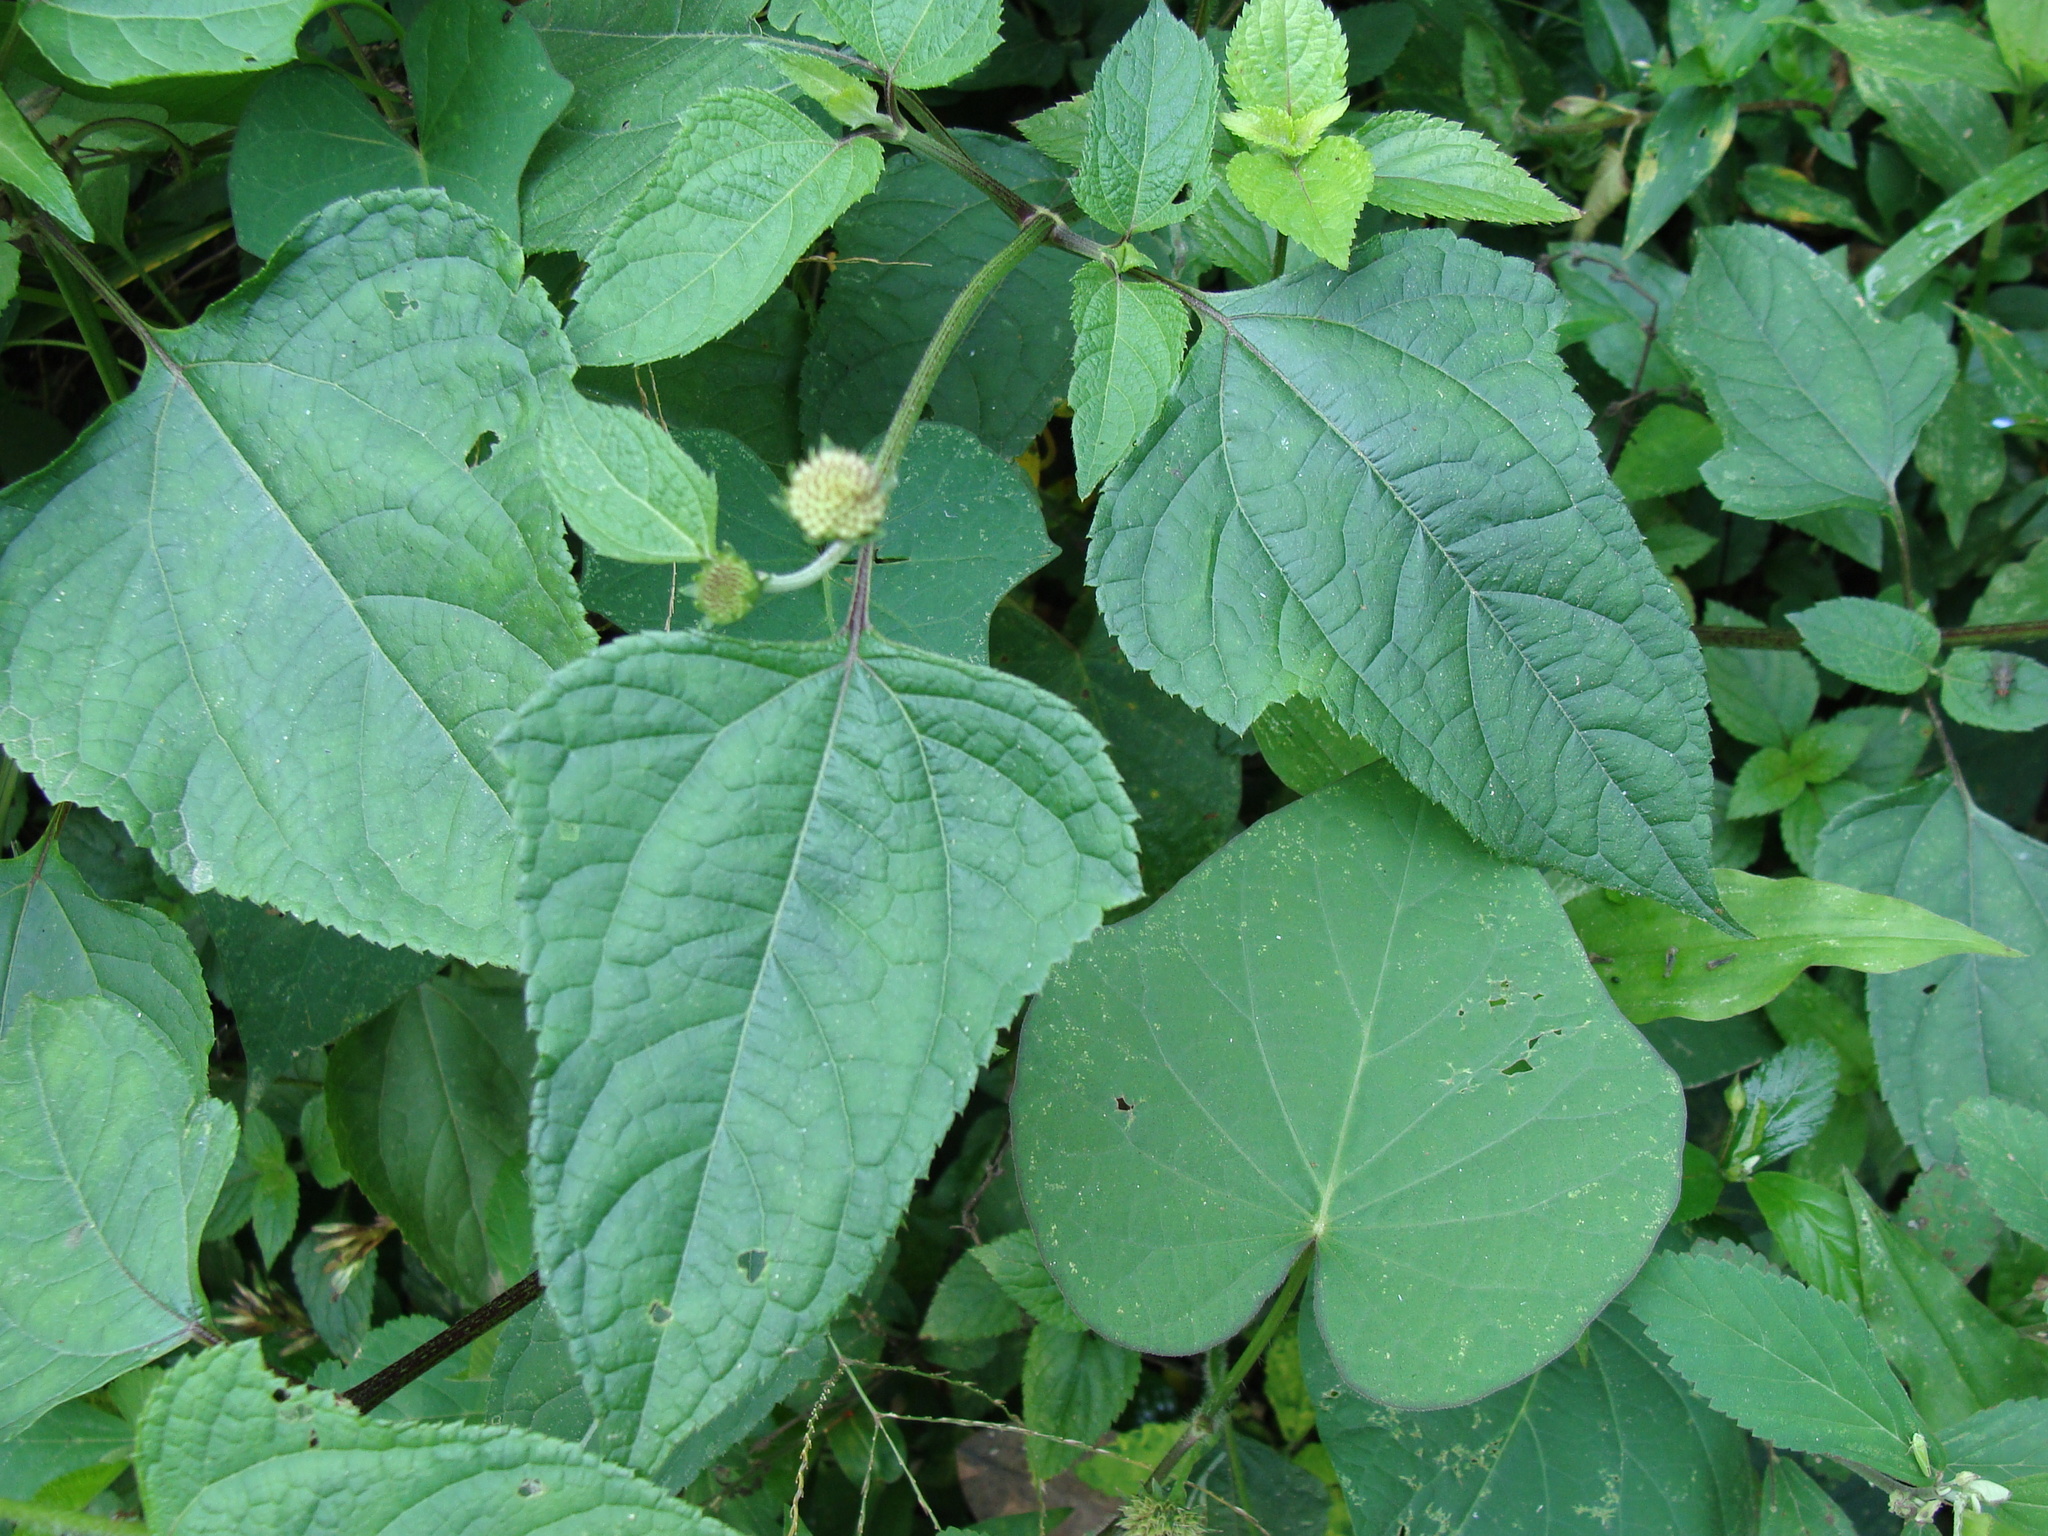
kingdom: Plantae
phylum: Tracheophyta
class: Magnoliopsida
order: Asterales
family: Asteraceae
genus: Melanthera
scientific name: Melanthera nivea
